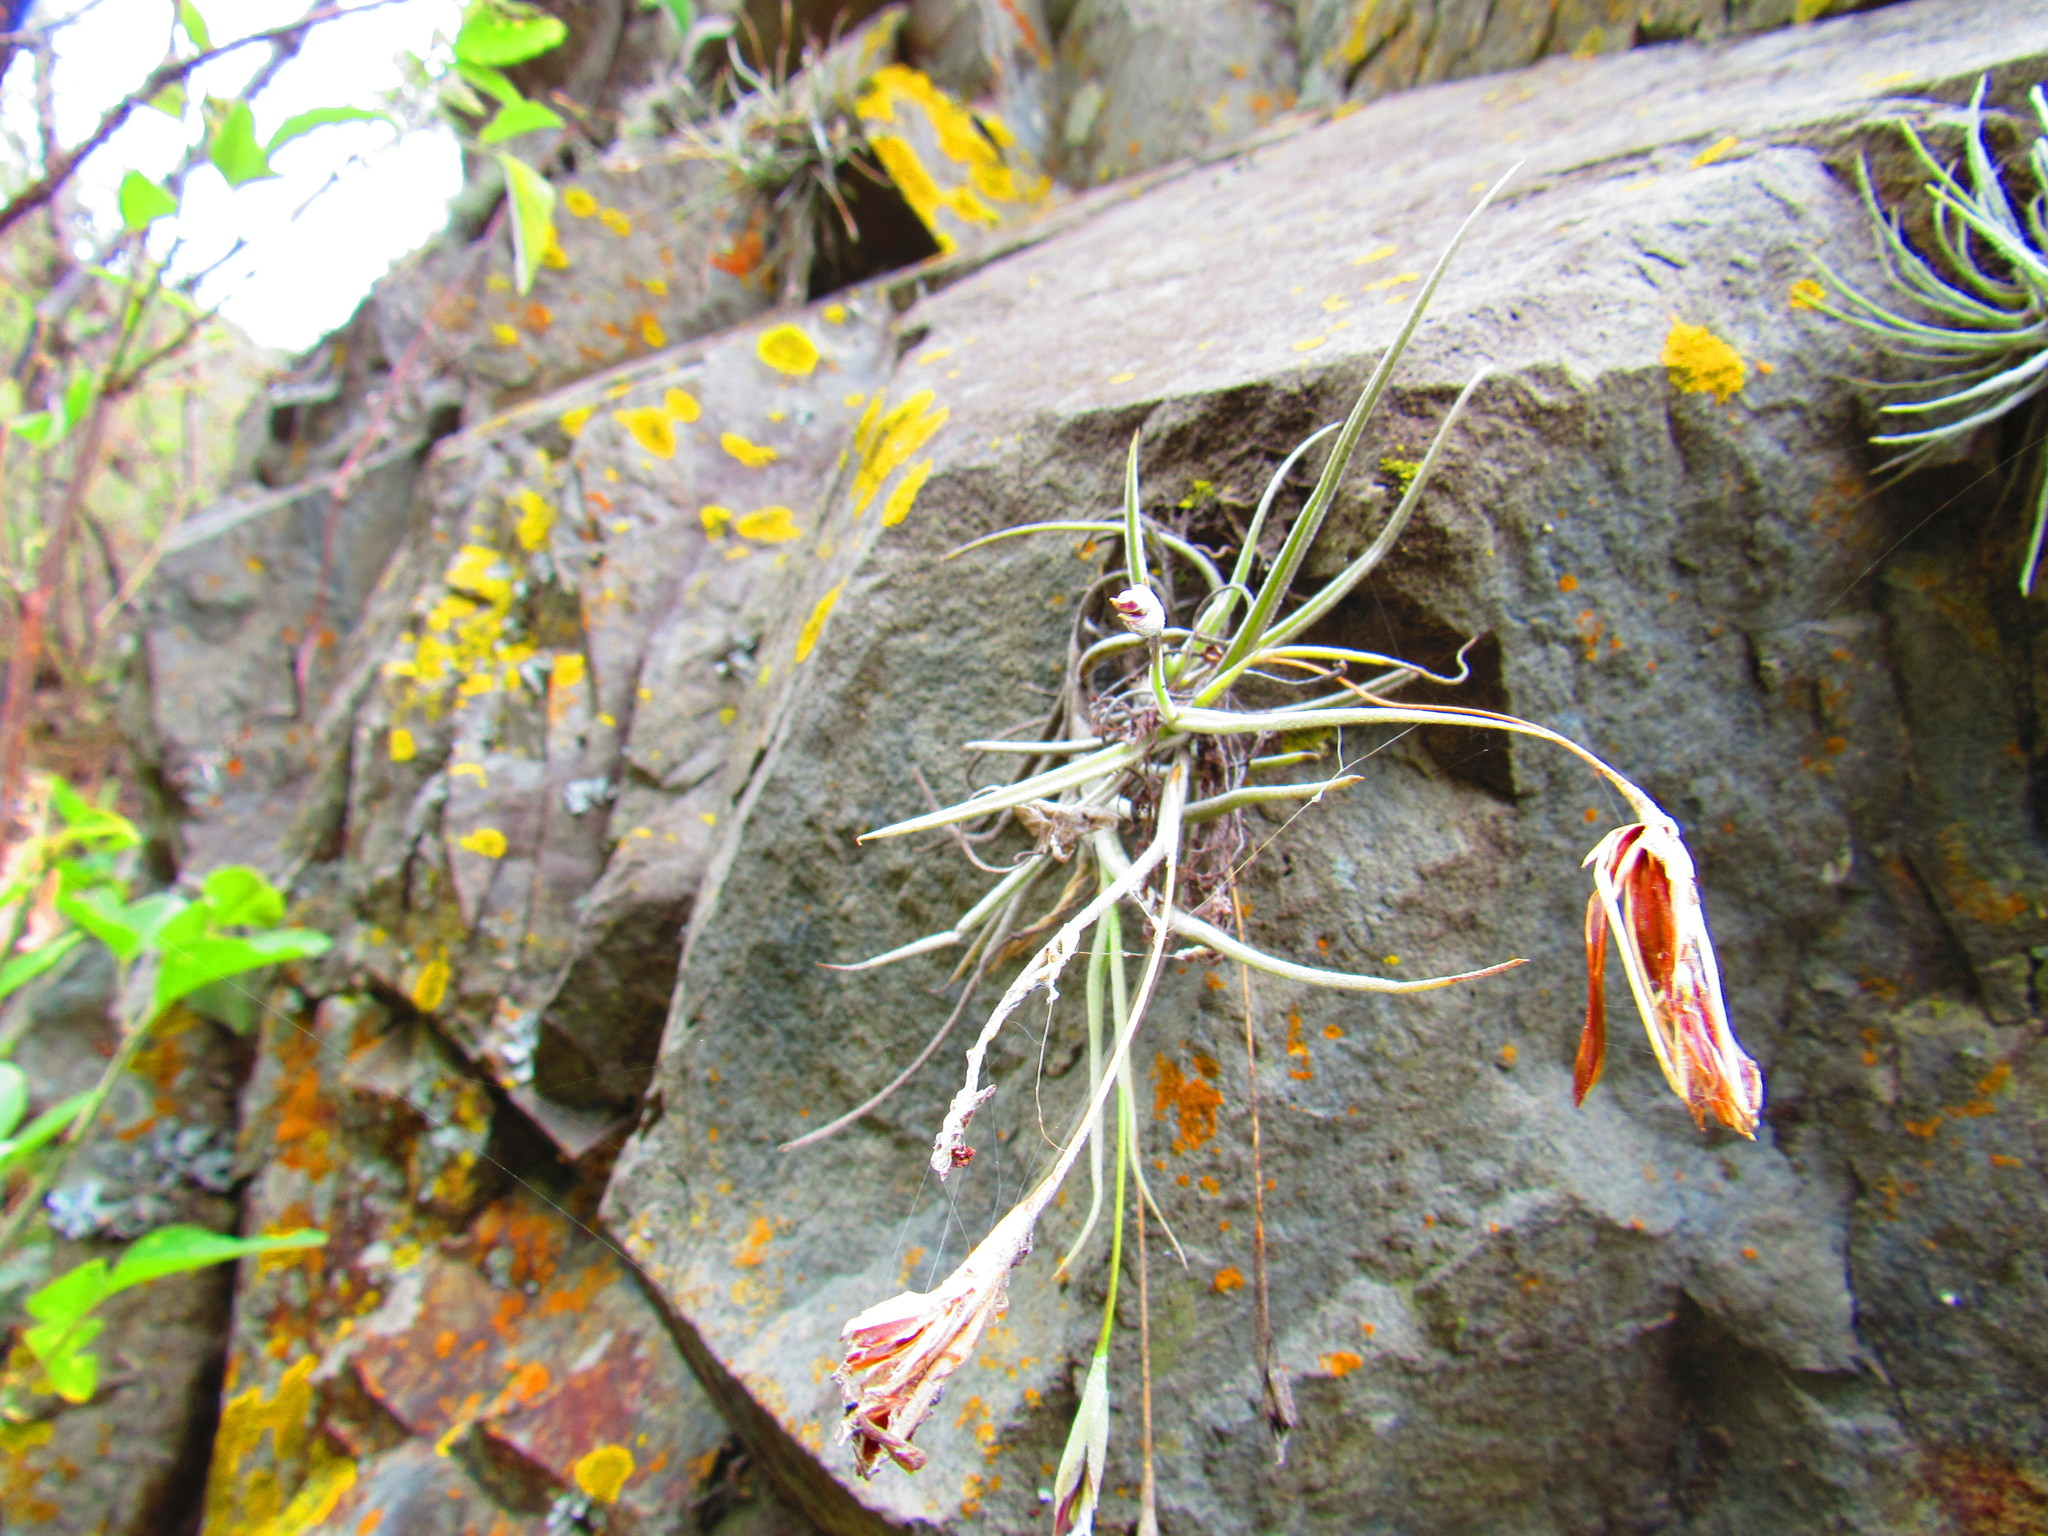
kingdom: Plantae
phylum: Tracheophyta
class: Liliopsida
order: Poales
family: Bromeliaceae
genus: Tillandsia
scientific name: Tillandsia recurvata
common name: Small ballmoss
